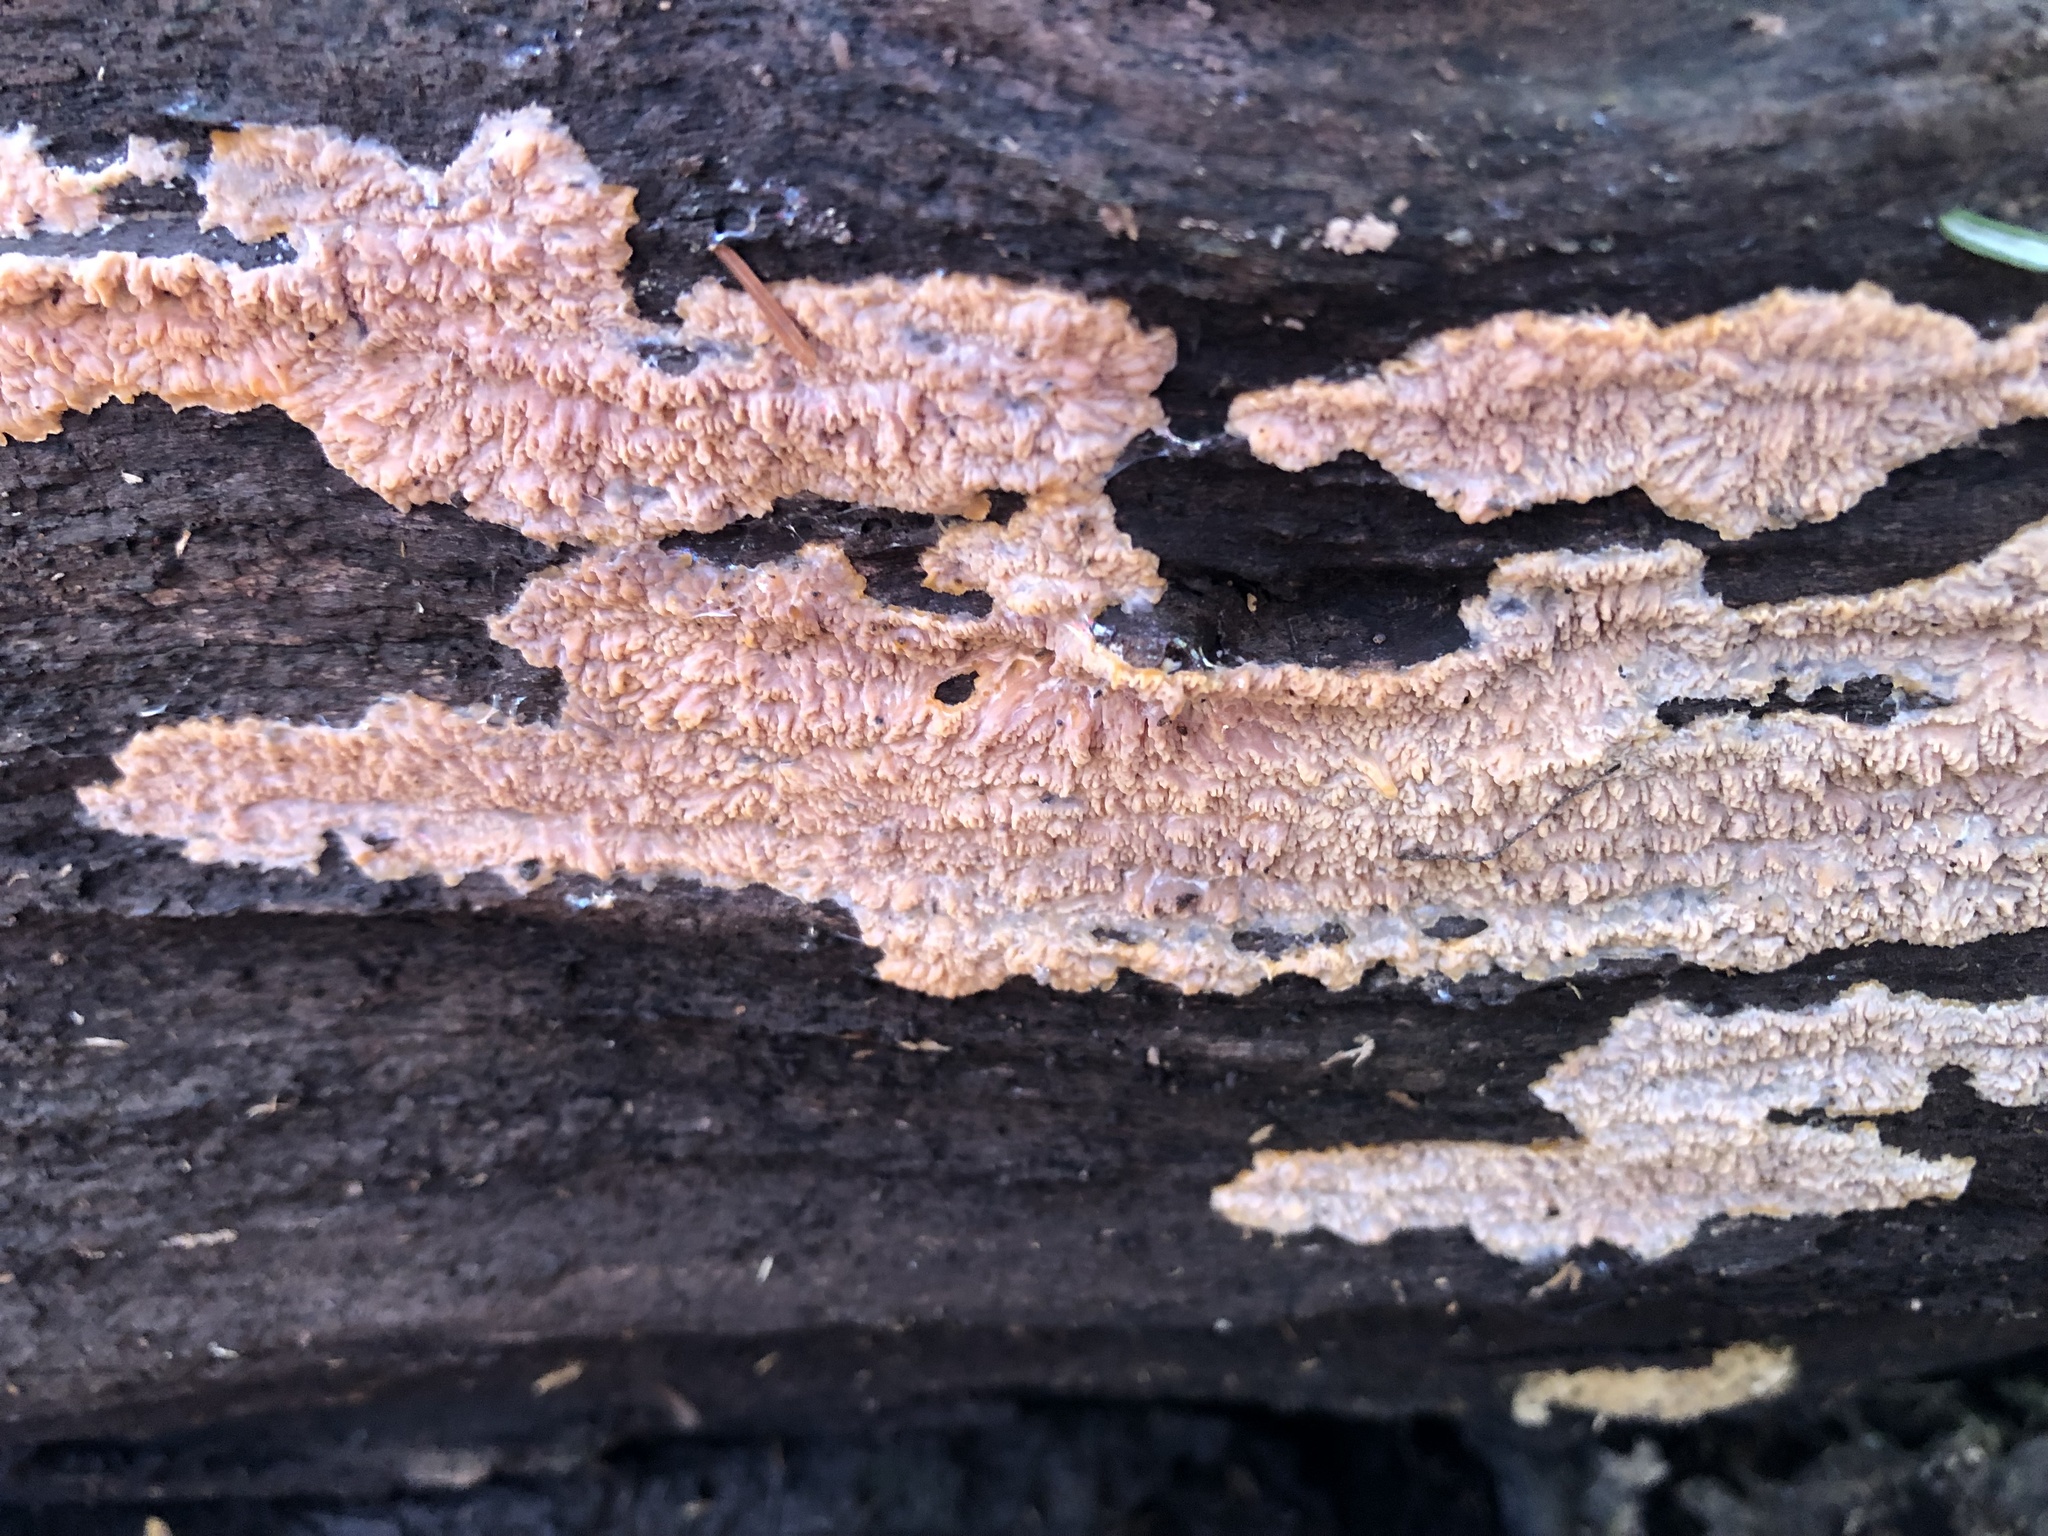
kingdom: Fungi
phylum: Basidiomycota
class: Agaricomycetes
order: Polyporales
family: Meruliaceae
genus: Phlebia
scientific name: Phlebia radiata
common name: Wrinkled crust
